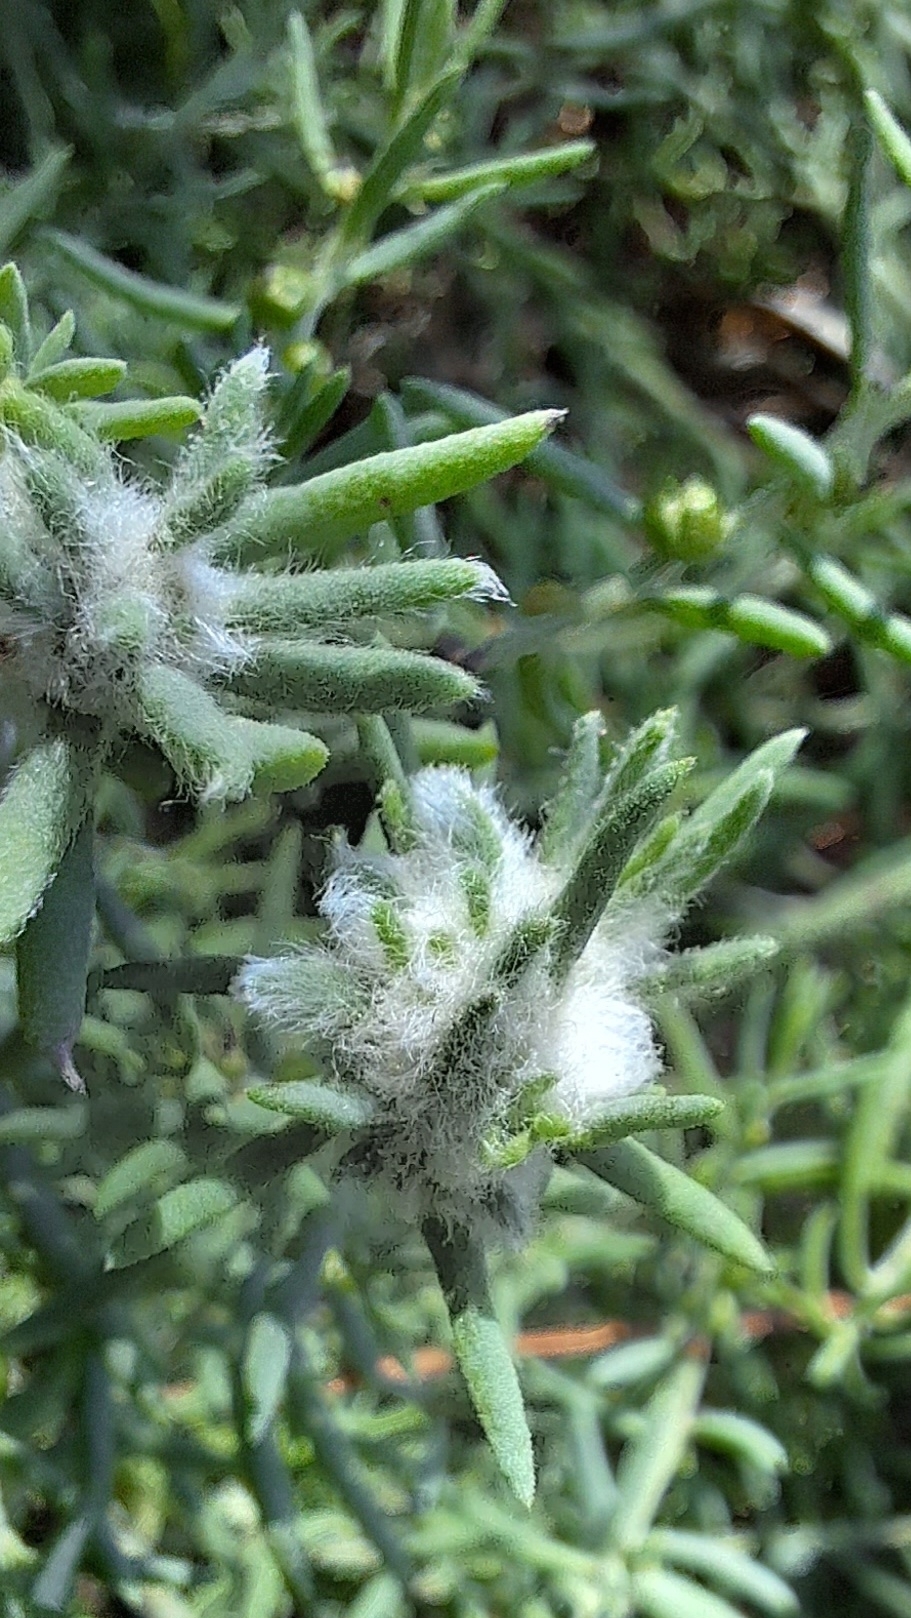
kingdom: Animalia
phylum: Arthropoda
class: Insecta
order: Diptera
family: Cecidomyiidae
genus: Asphondylia
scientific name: Asphondylia tonsura
